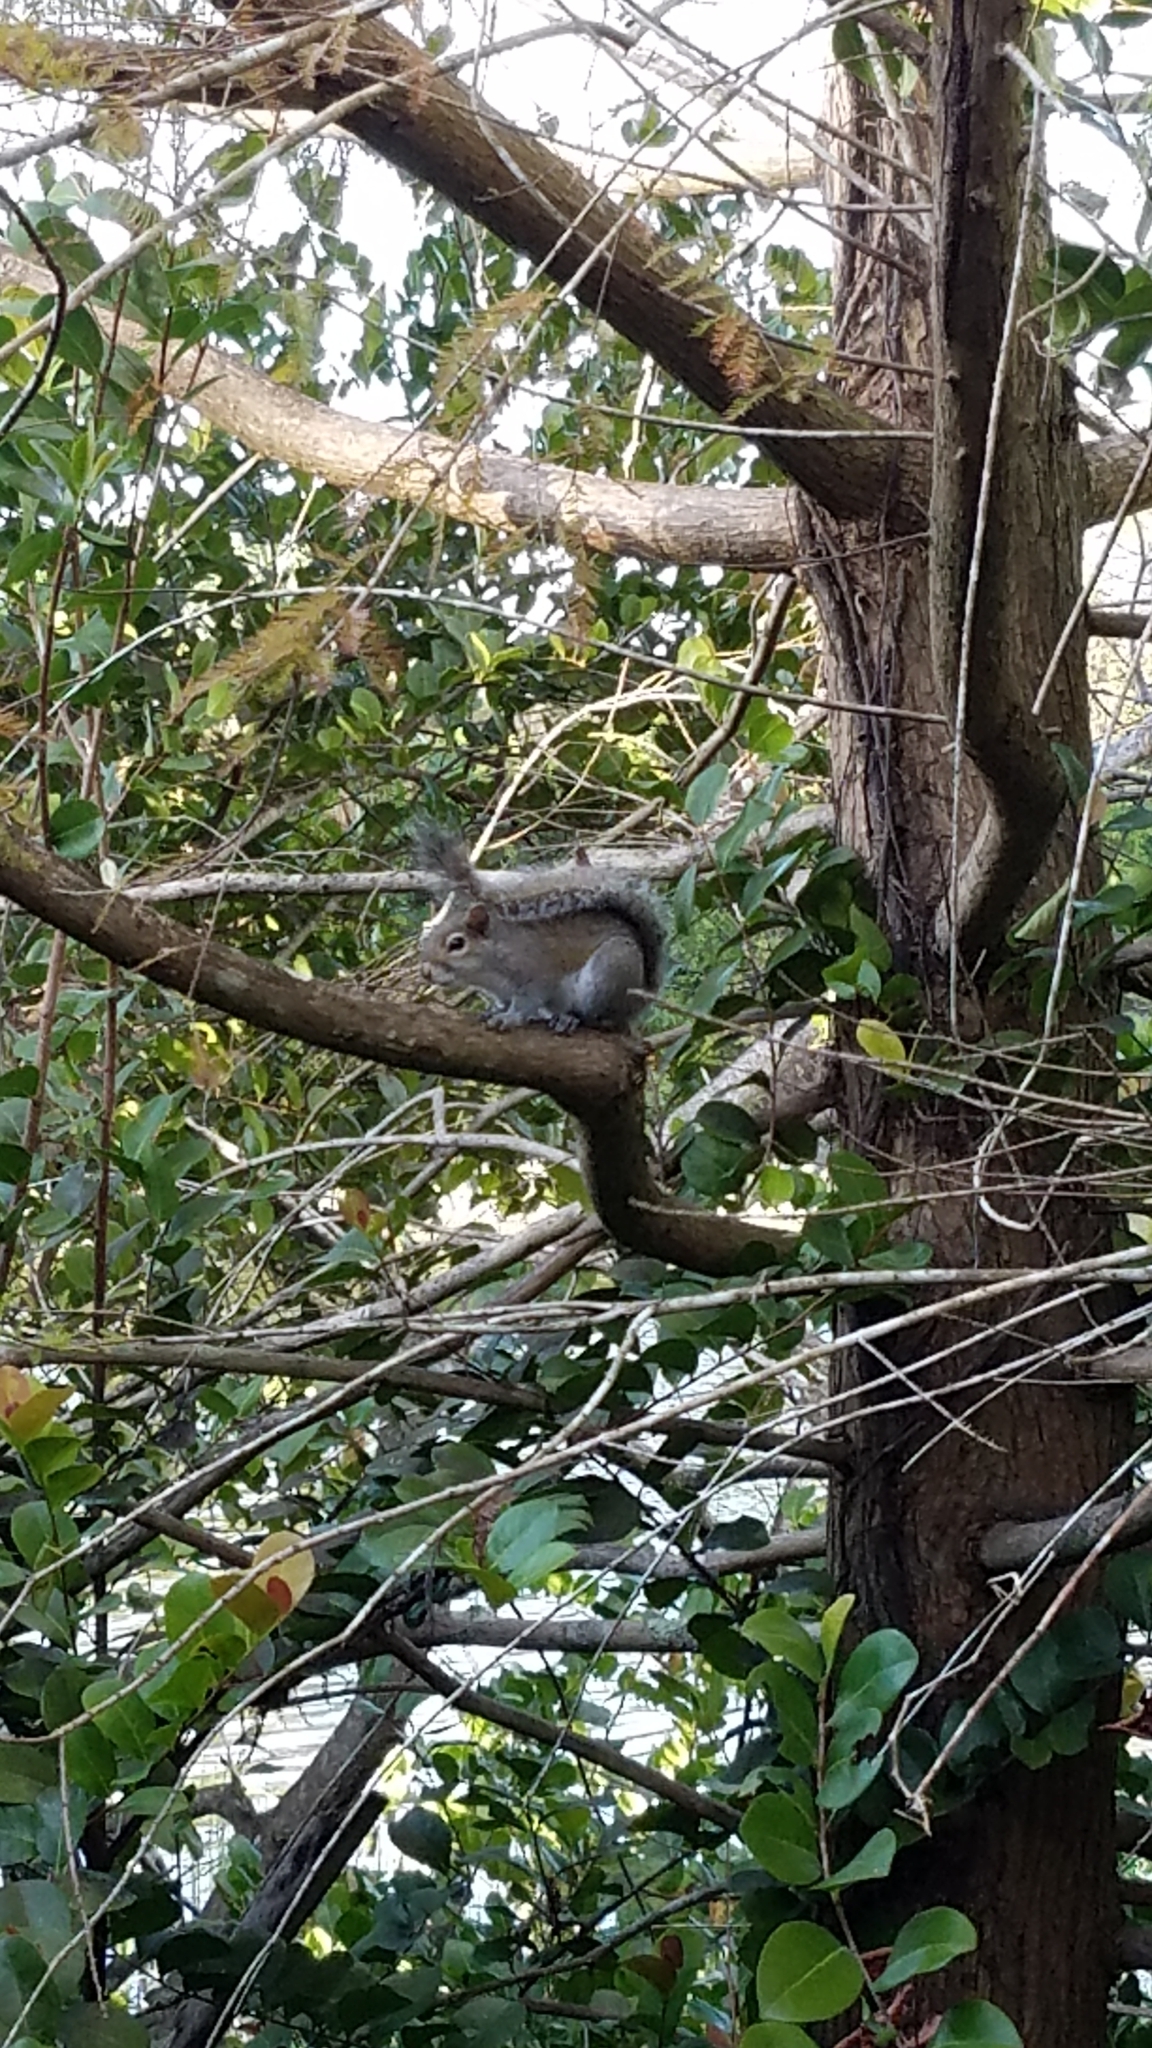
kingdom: Animalia
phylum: Chordata
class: Mammalia
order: Rodentia
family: Sciuridae
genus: Sciurus
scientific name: Sciurus carolinensis
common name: Eastern gray squirrel
